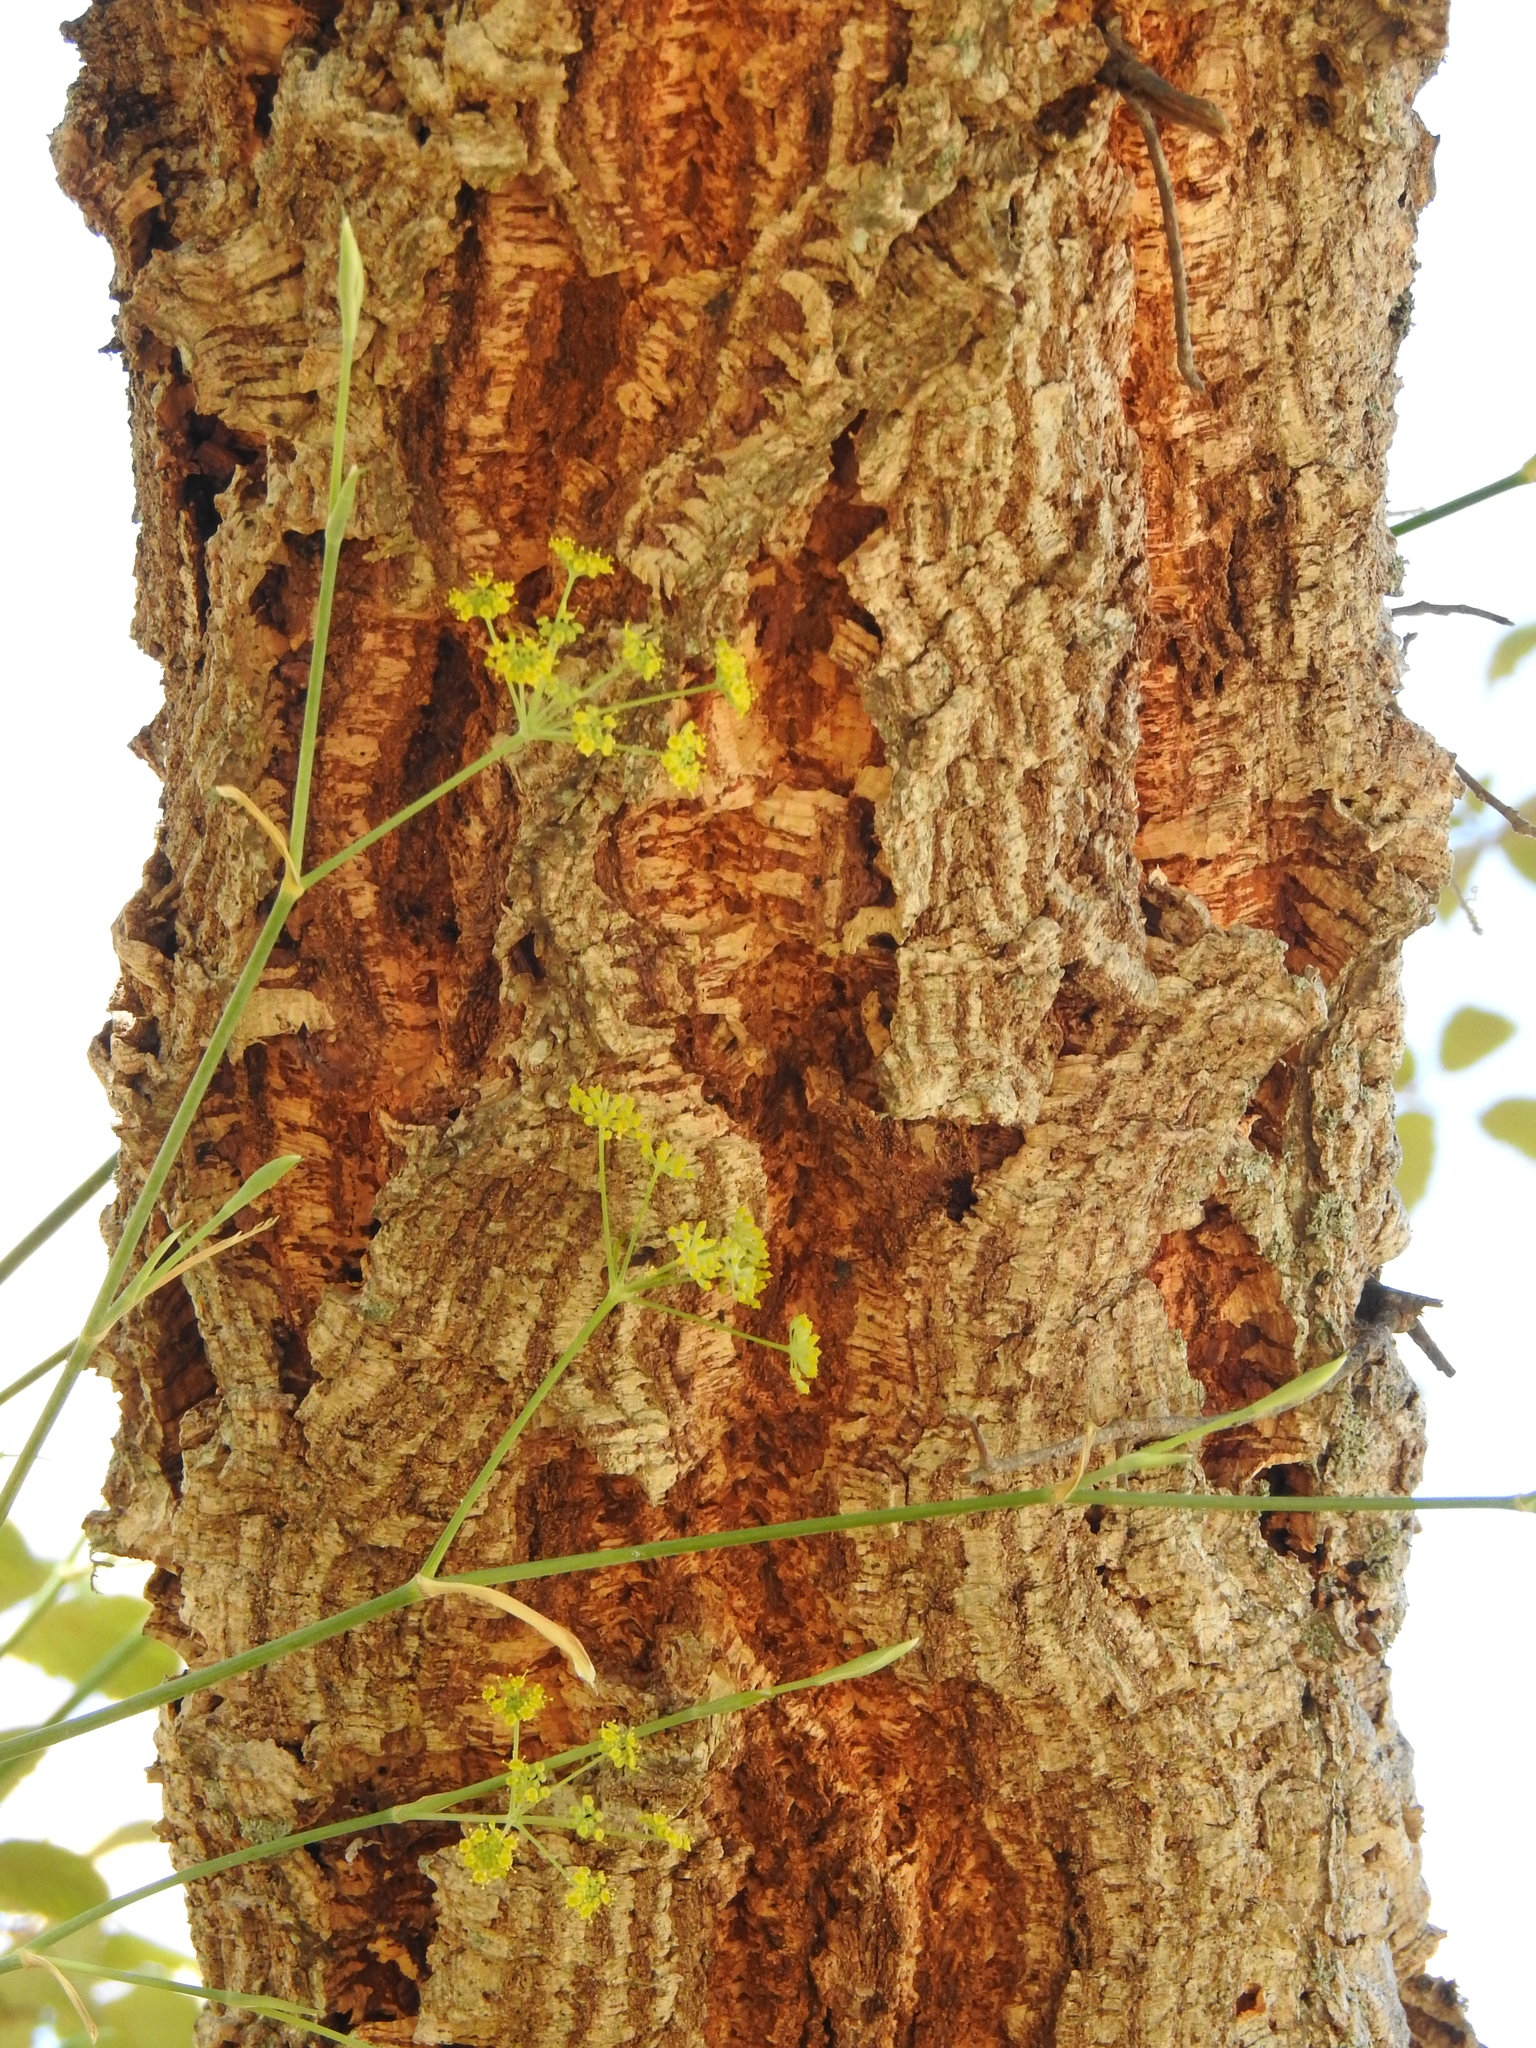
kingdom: Plantae
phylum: Tracheophyta
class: Magnoliopsida
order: Fagales
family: Fagaceae
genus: Quercus
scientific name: Quercus suber
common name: Cork oak
